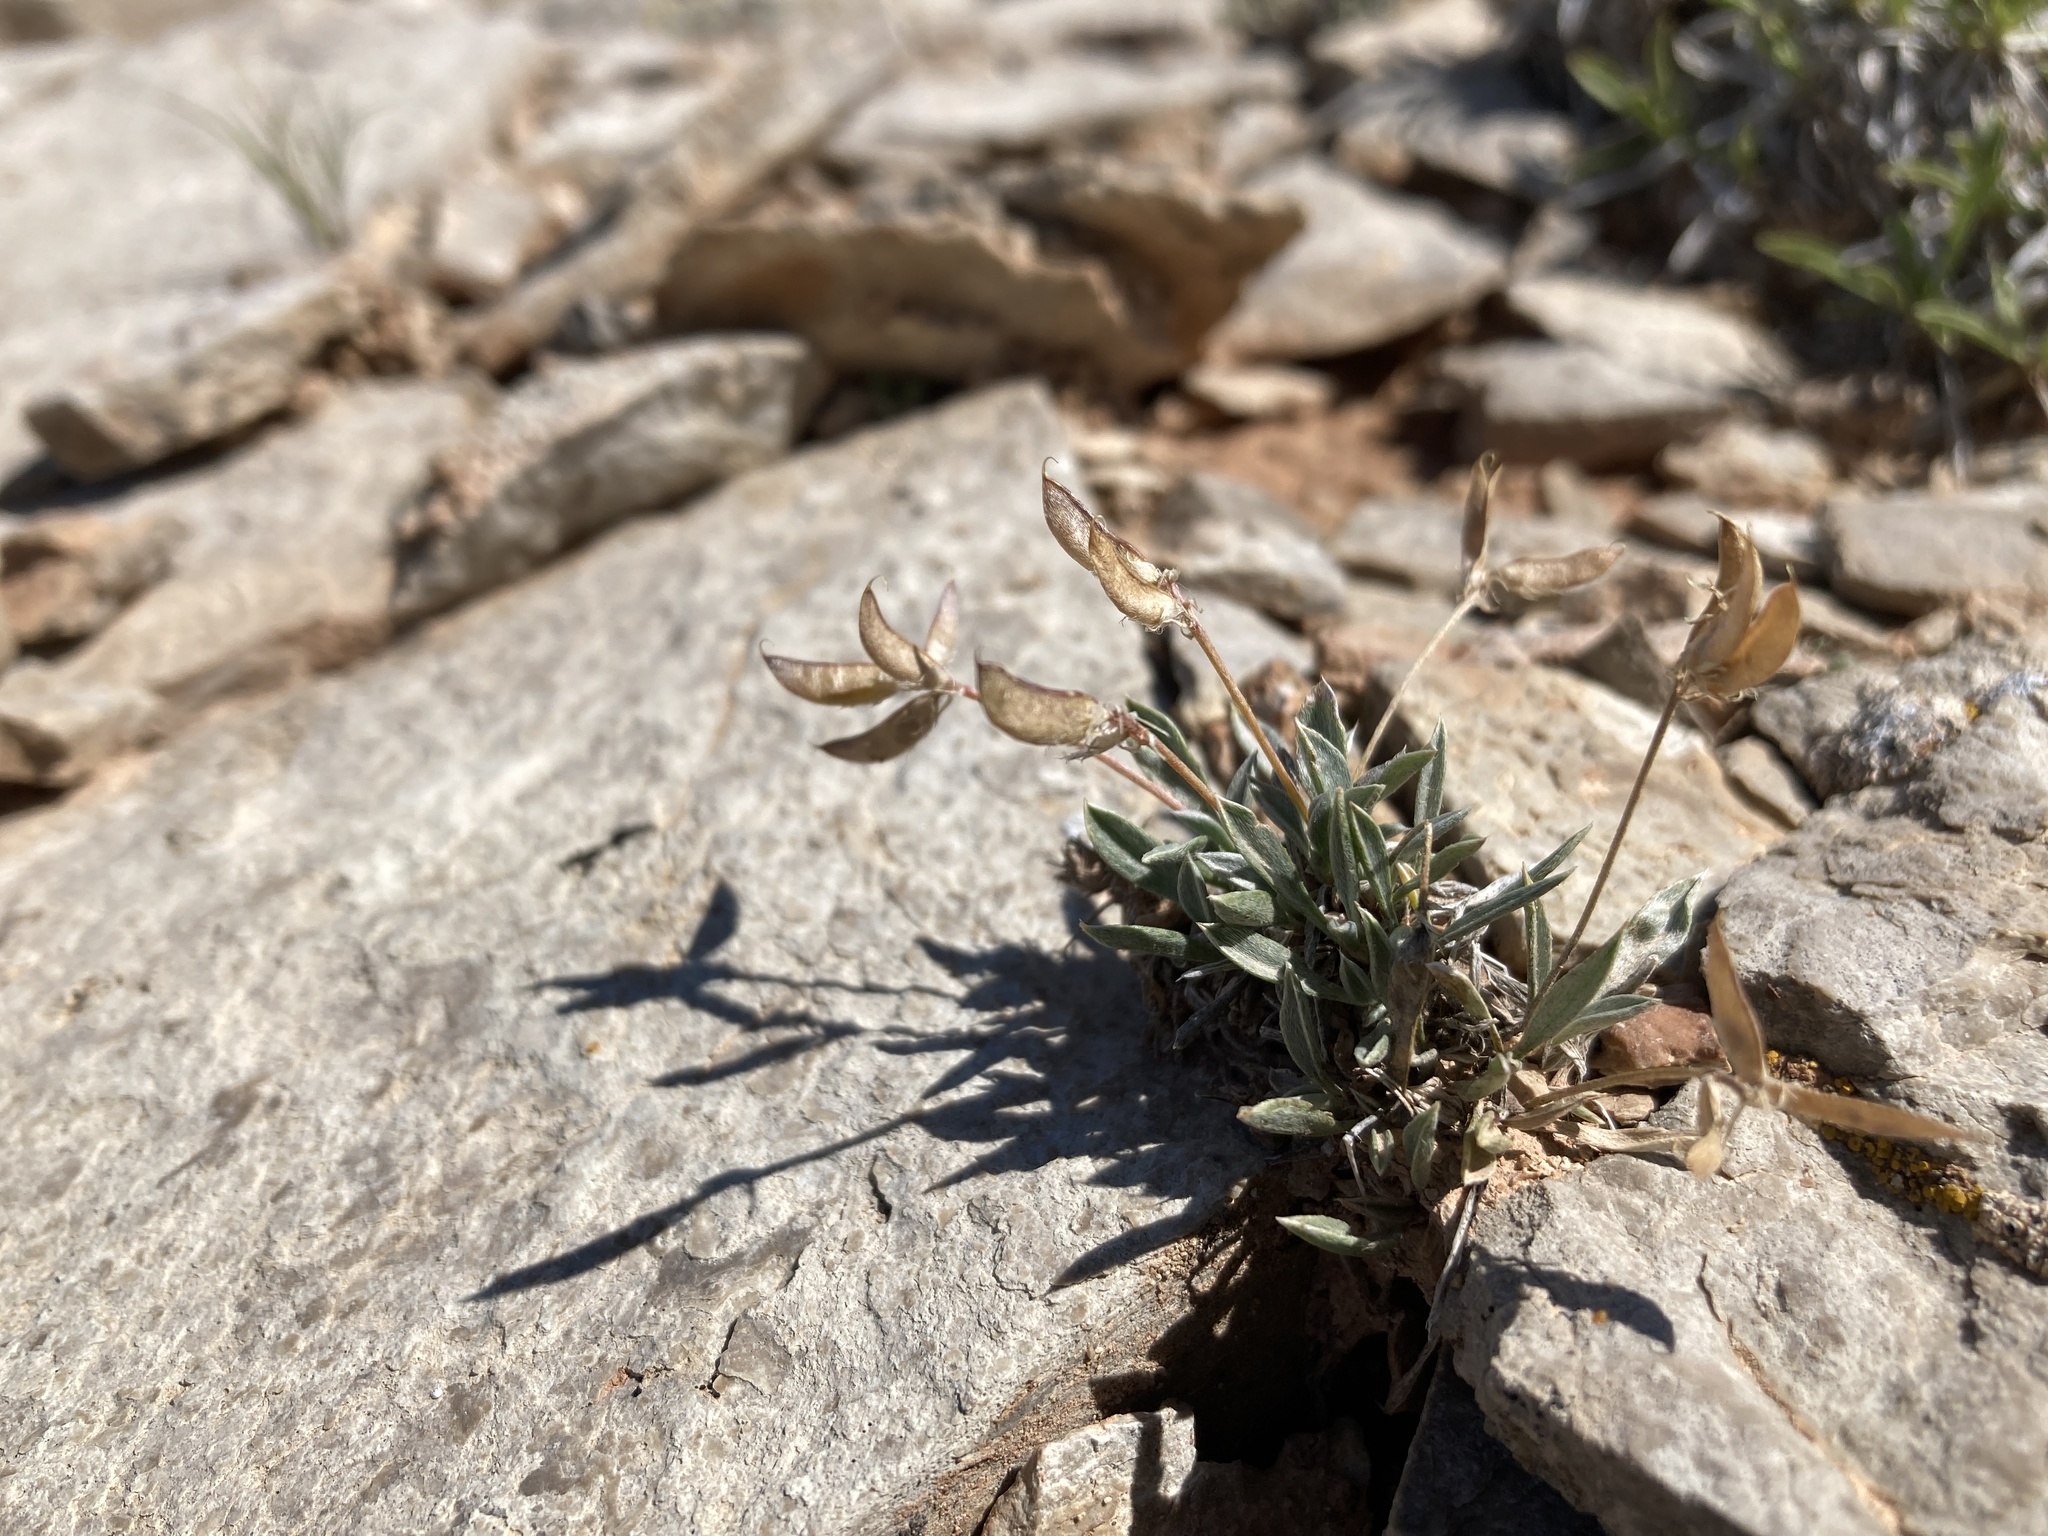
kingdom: Plantae
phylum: Tracheophyta
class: Magnoliopsida
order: Fabales
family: Fabaceae
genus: Astragalus
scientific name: Astragalus spatulatus
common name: Draba milk-vetch
